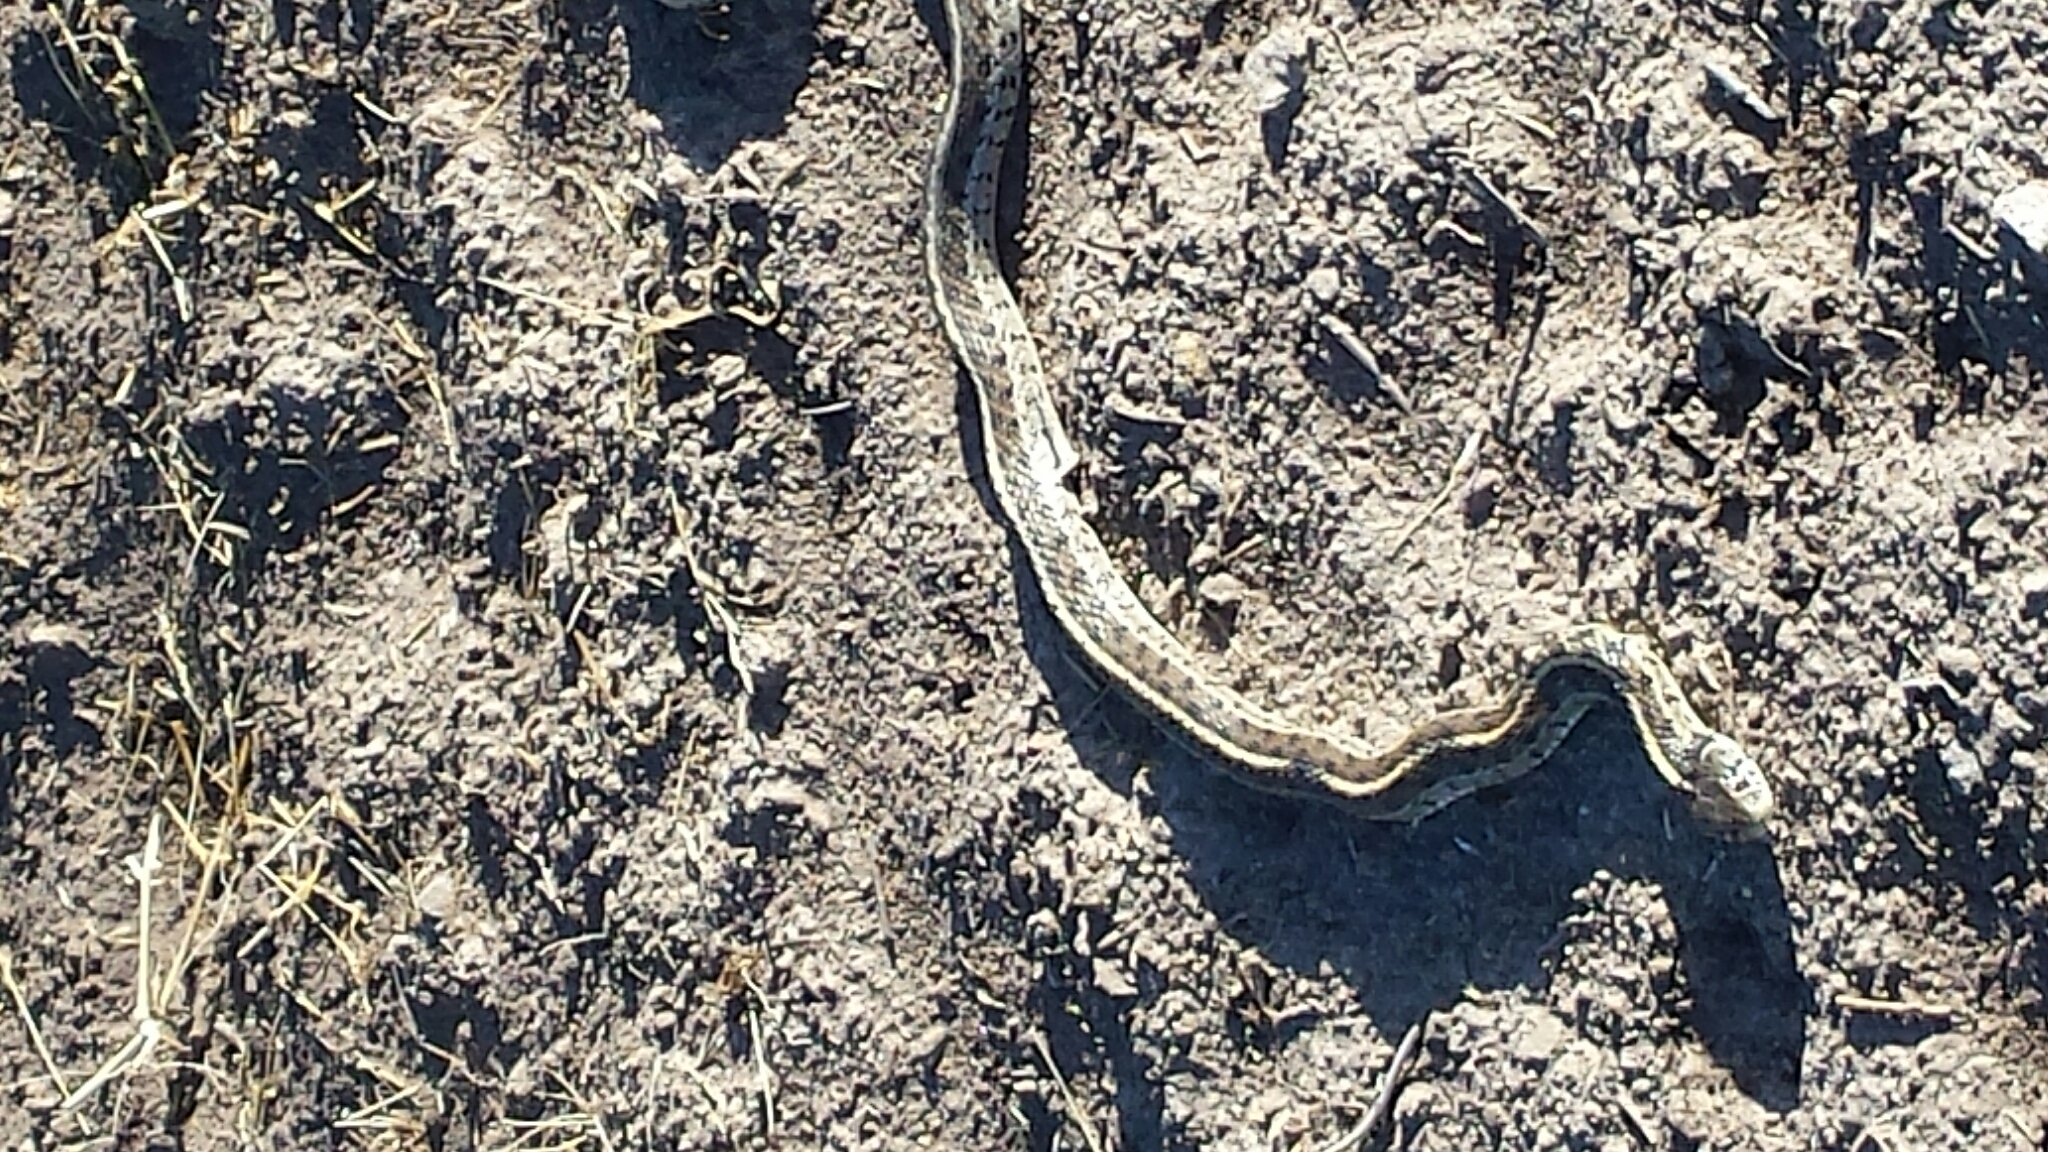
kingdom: Animalia
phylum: Chordata
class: Squamata
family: Colubridae
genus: Thamnophis
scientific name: Thamnophis marcianus
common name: Checkered garter snake
